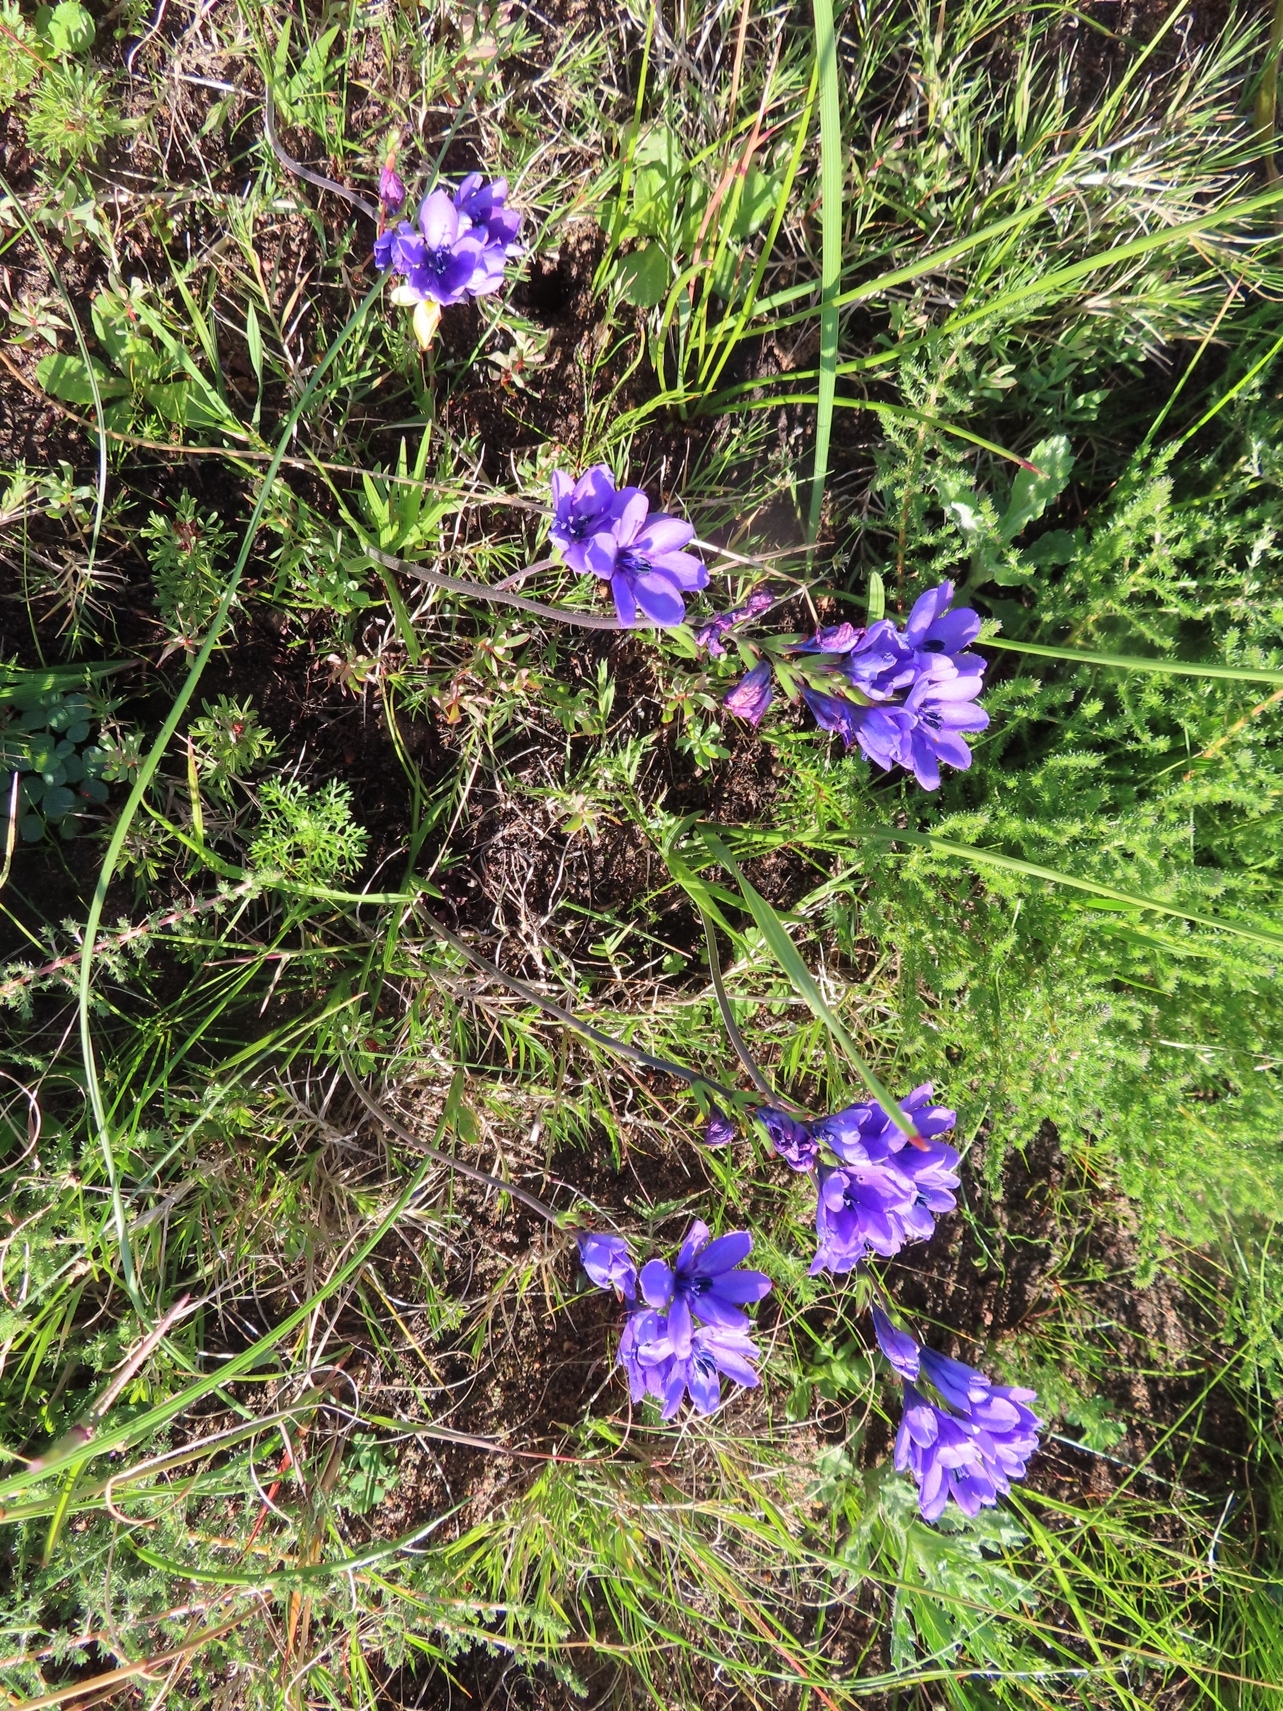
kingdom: Plantae
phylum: Tracheophyta
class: Liliopsida
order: Asparagales
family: Iridaceae
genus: Babiana
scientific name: Babiana angustifolia
